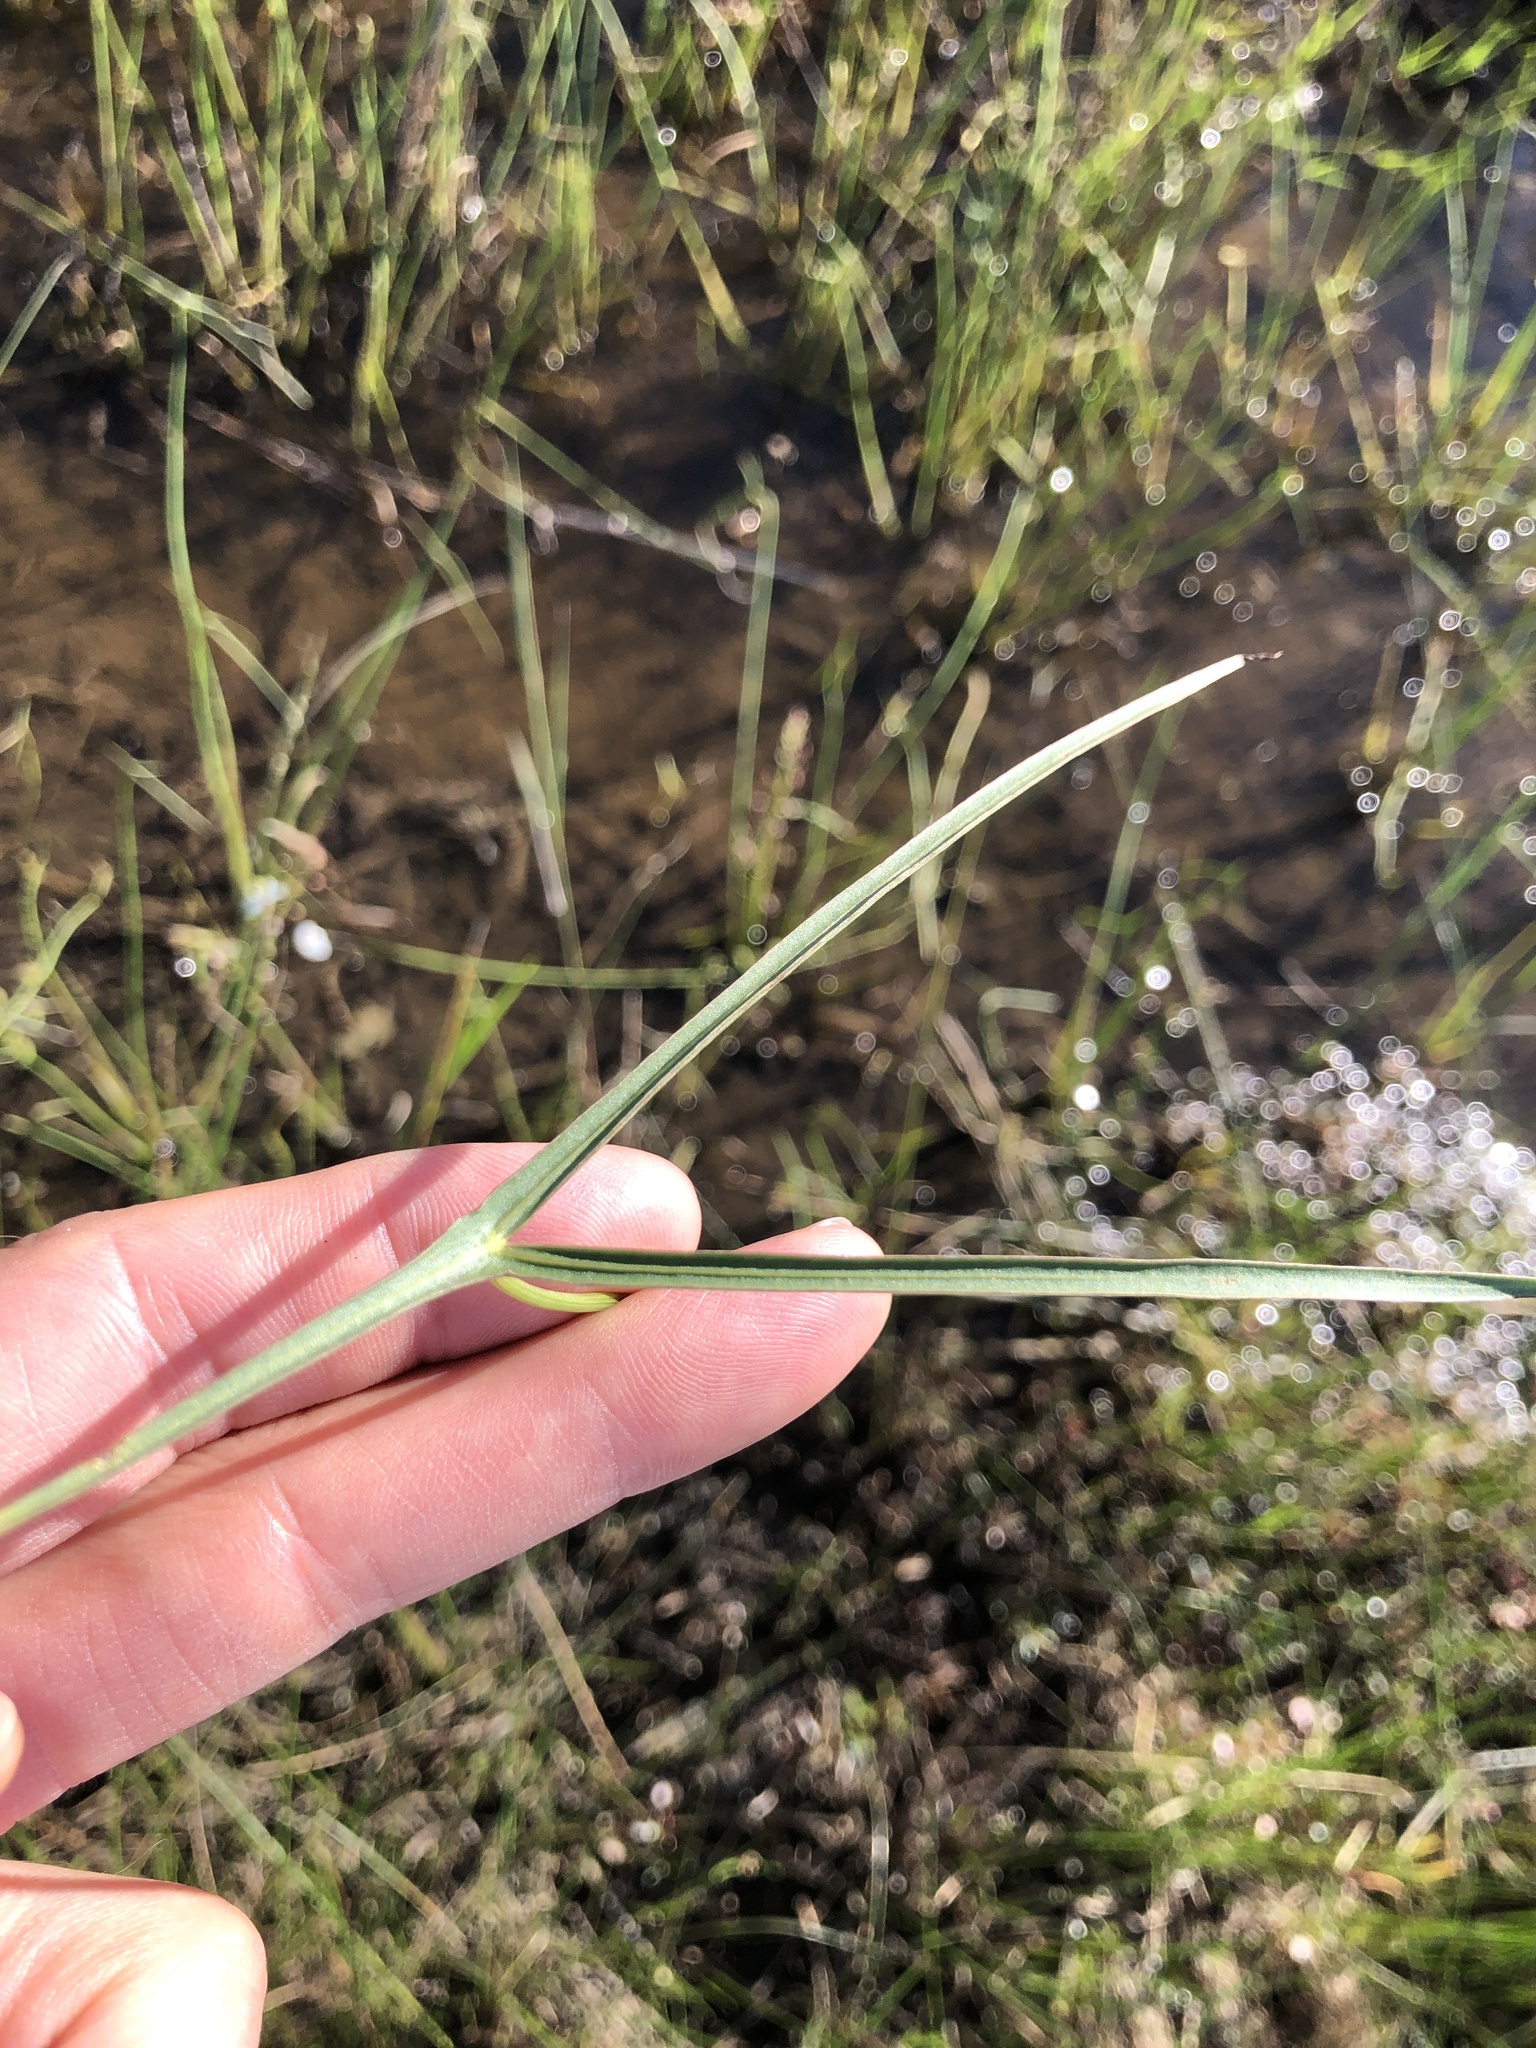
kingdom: Plantae
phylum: Tracheophyta
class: Liliopsida
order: Alismatales
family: Alismataceae
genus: Sagittaria
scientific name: Sagittaria longiloba
